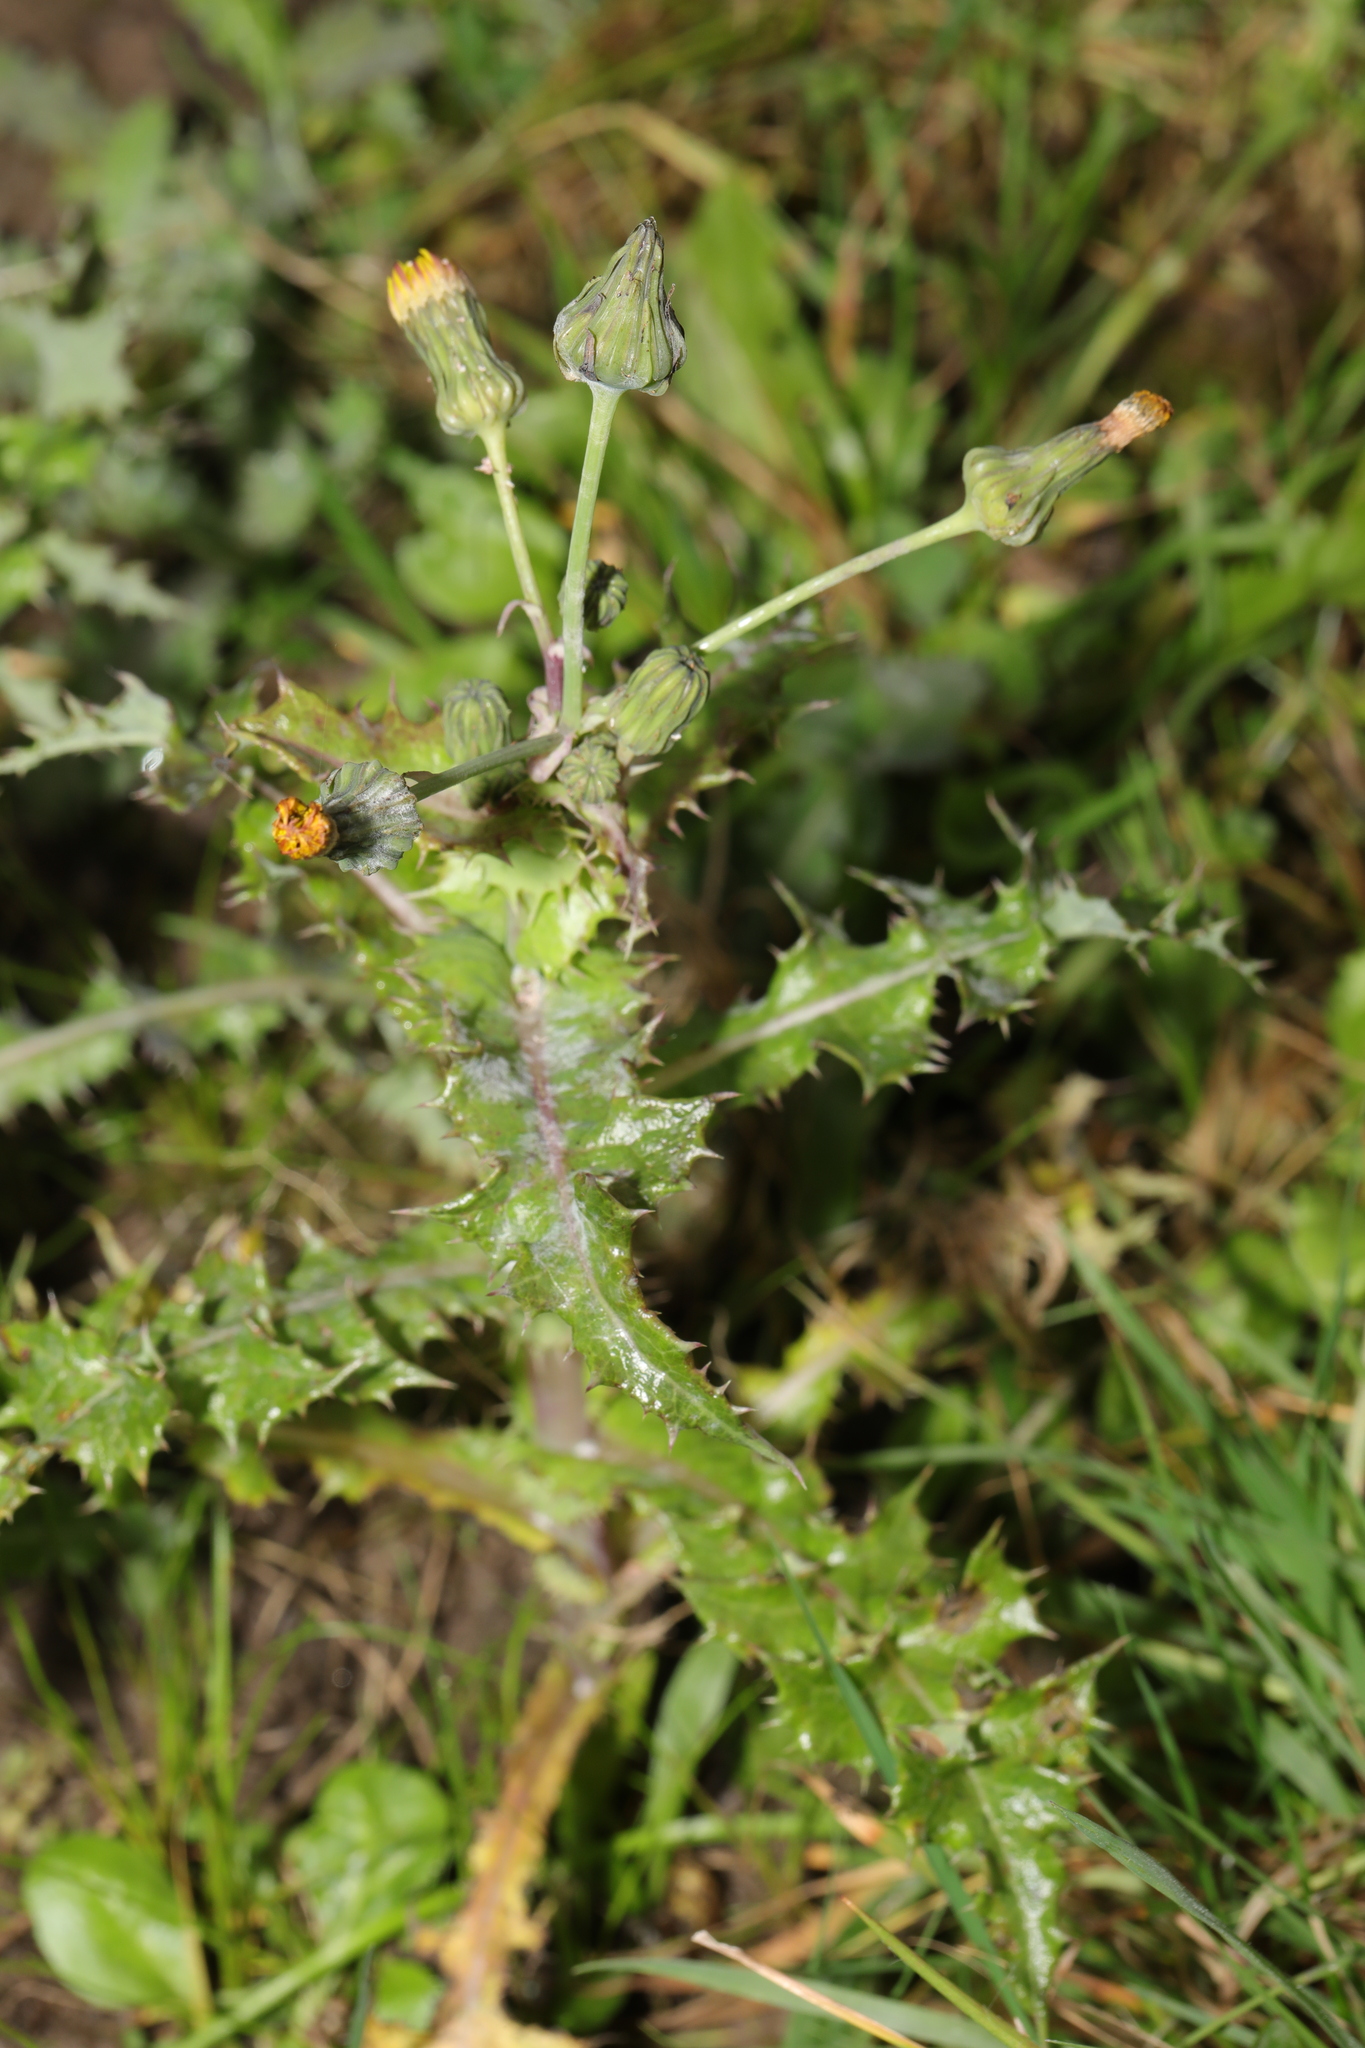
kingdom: Plantae
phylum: Tracheophyta
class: Magnoliopsida
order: Asterales
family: Asteraceae
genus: Sonchus
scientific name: Sonchus asper
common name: Prickly sow-thistle
